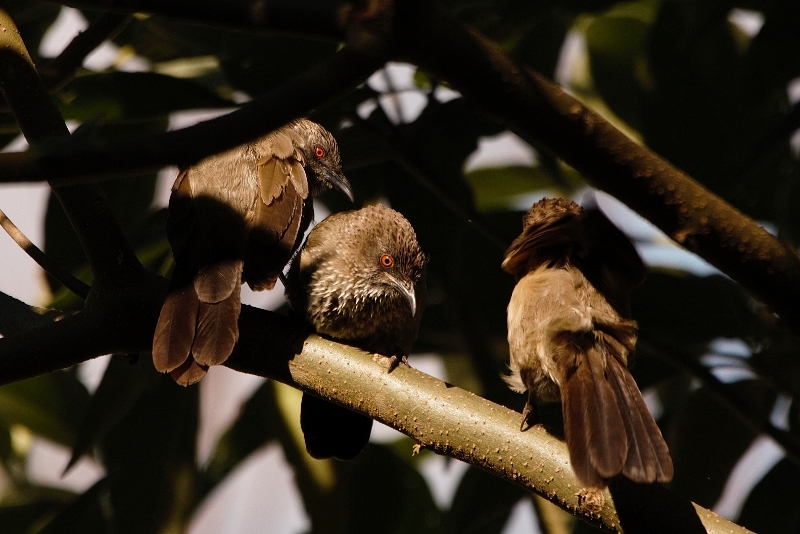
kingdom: Animalia
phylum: Chordata
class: Aves
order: Passeriformes
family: Leiothrichidae
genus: Turdoides
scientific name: Turdoides jardineii
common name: Arrow-marked babbler
